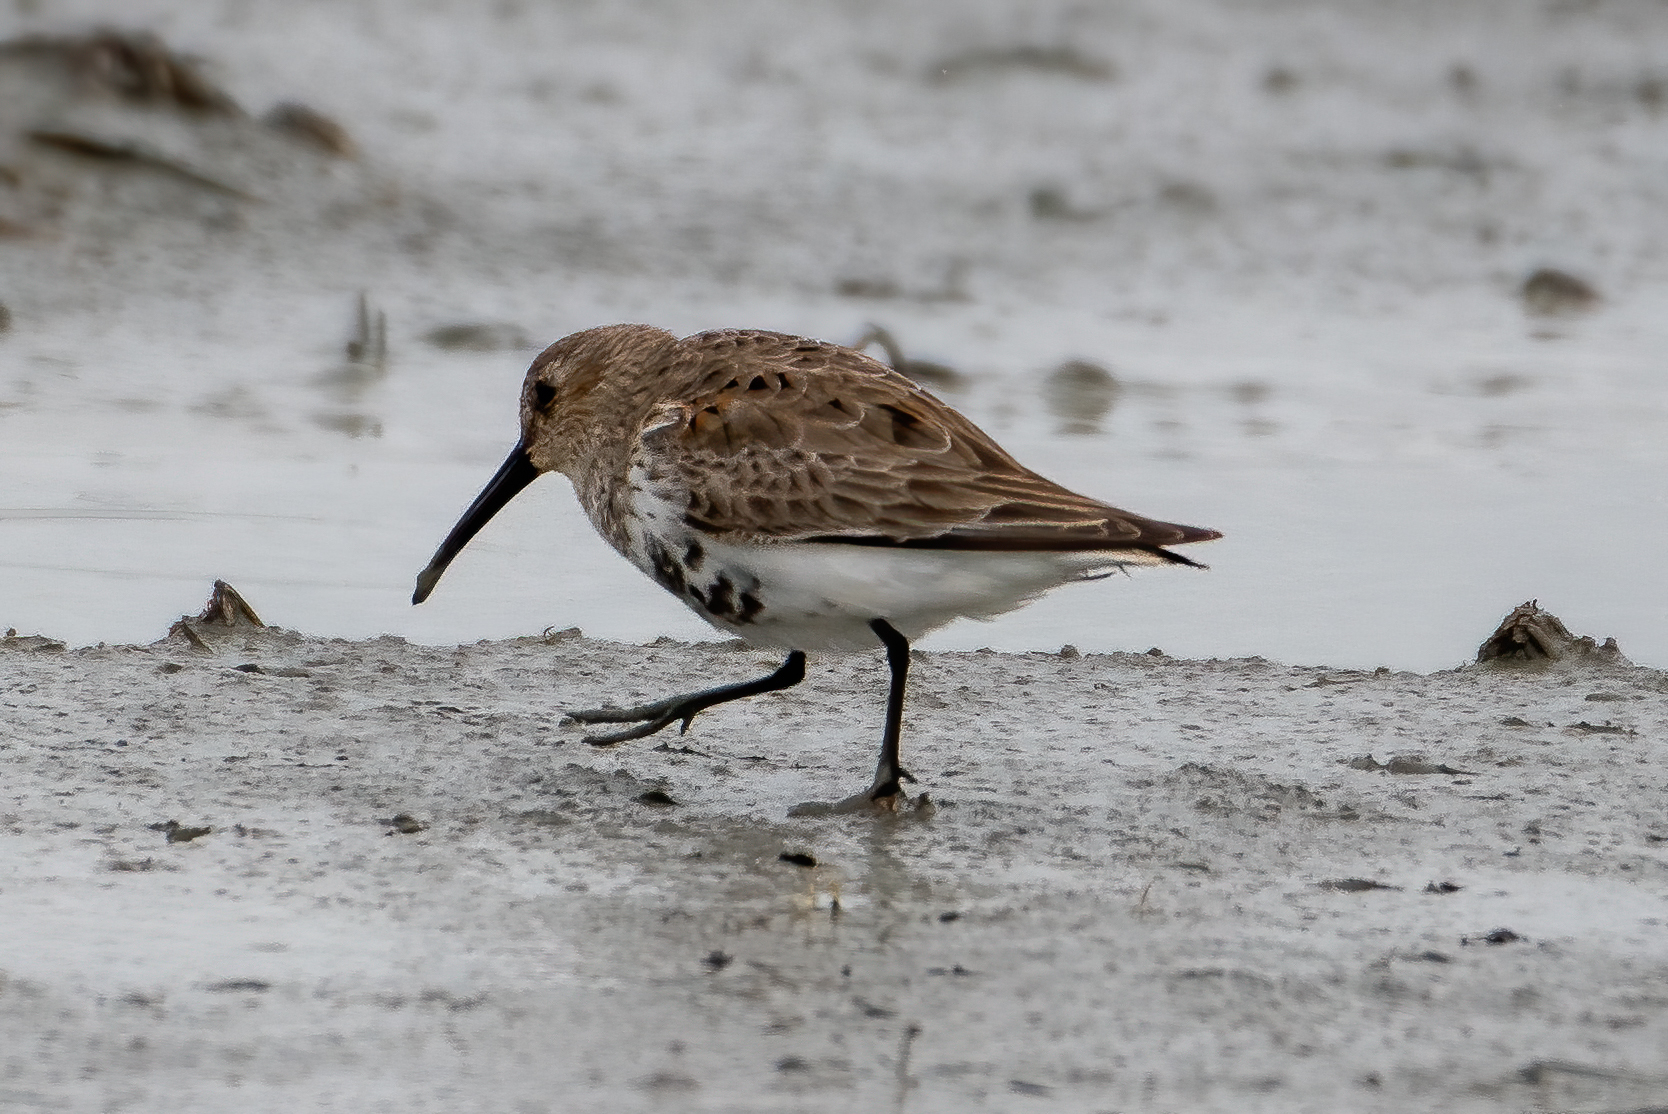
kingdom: Animalia
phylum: Chordata
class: Aves
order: Charadriiformes
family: Scolopacidae
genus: Calidris
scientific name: Calidris alpina
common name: Dunlin
